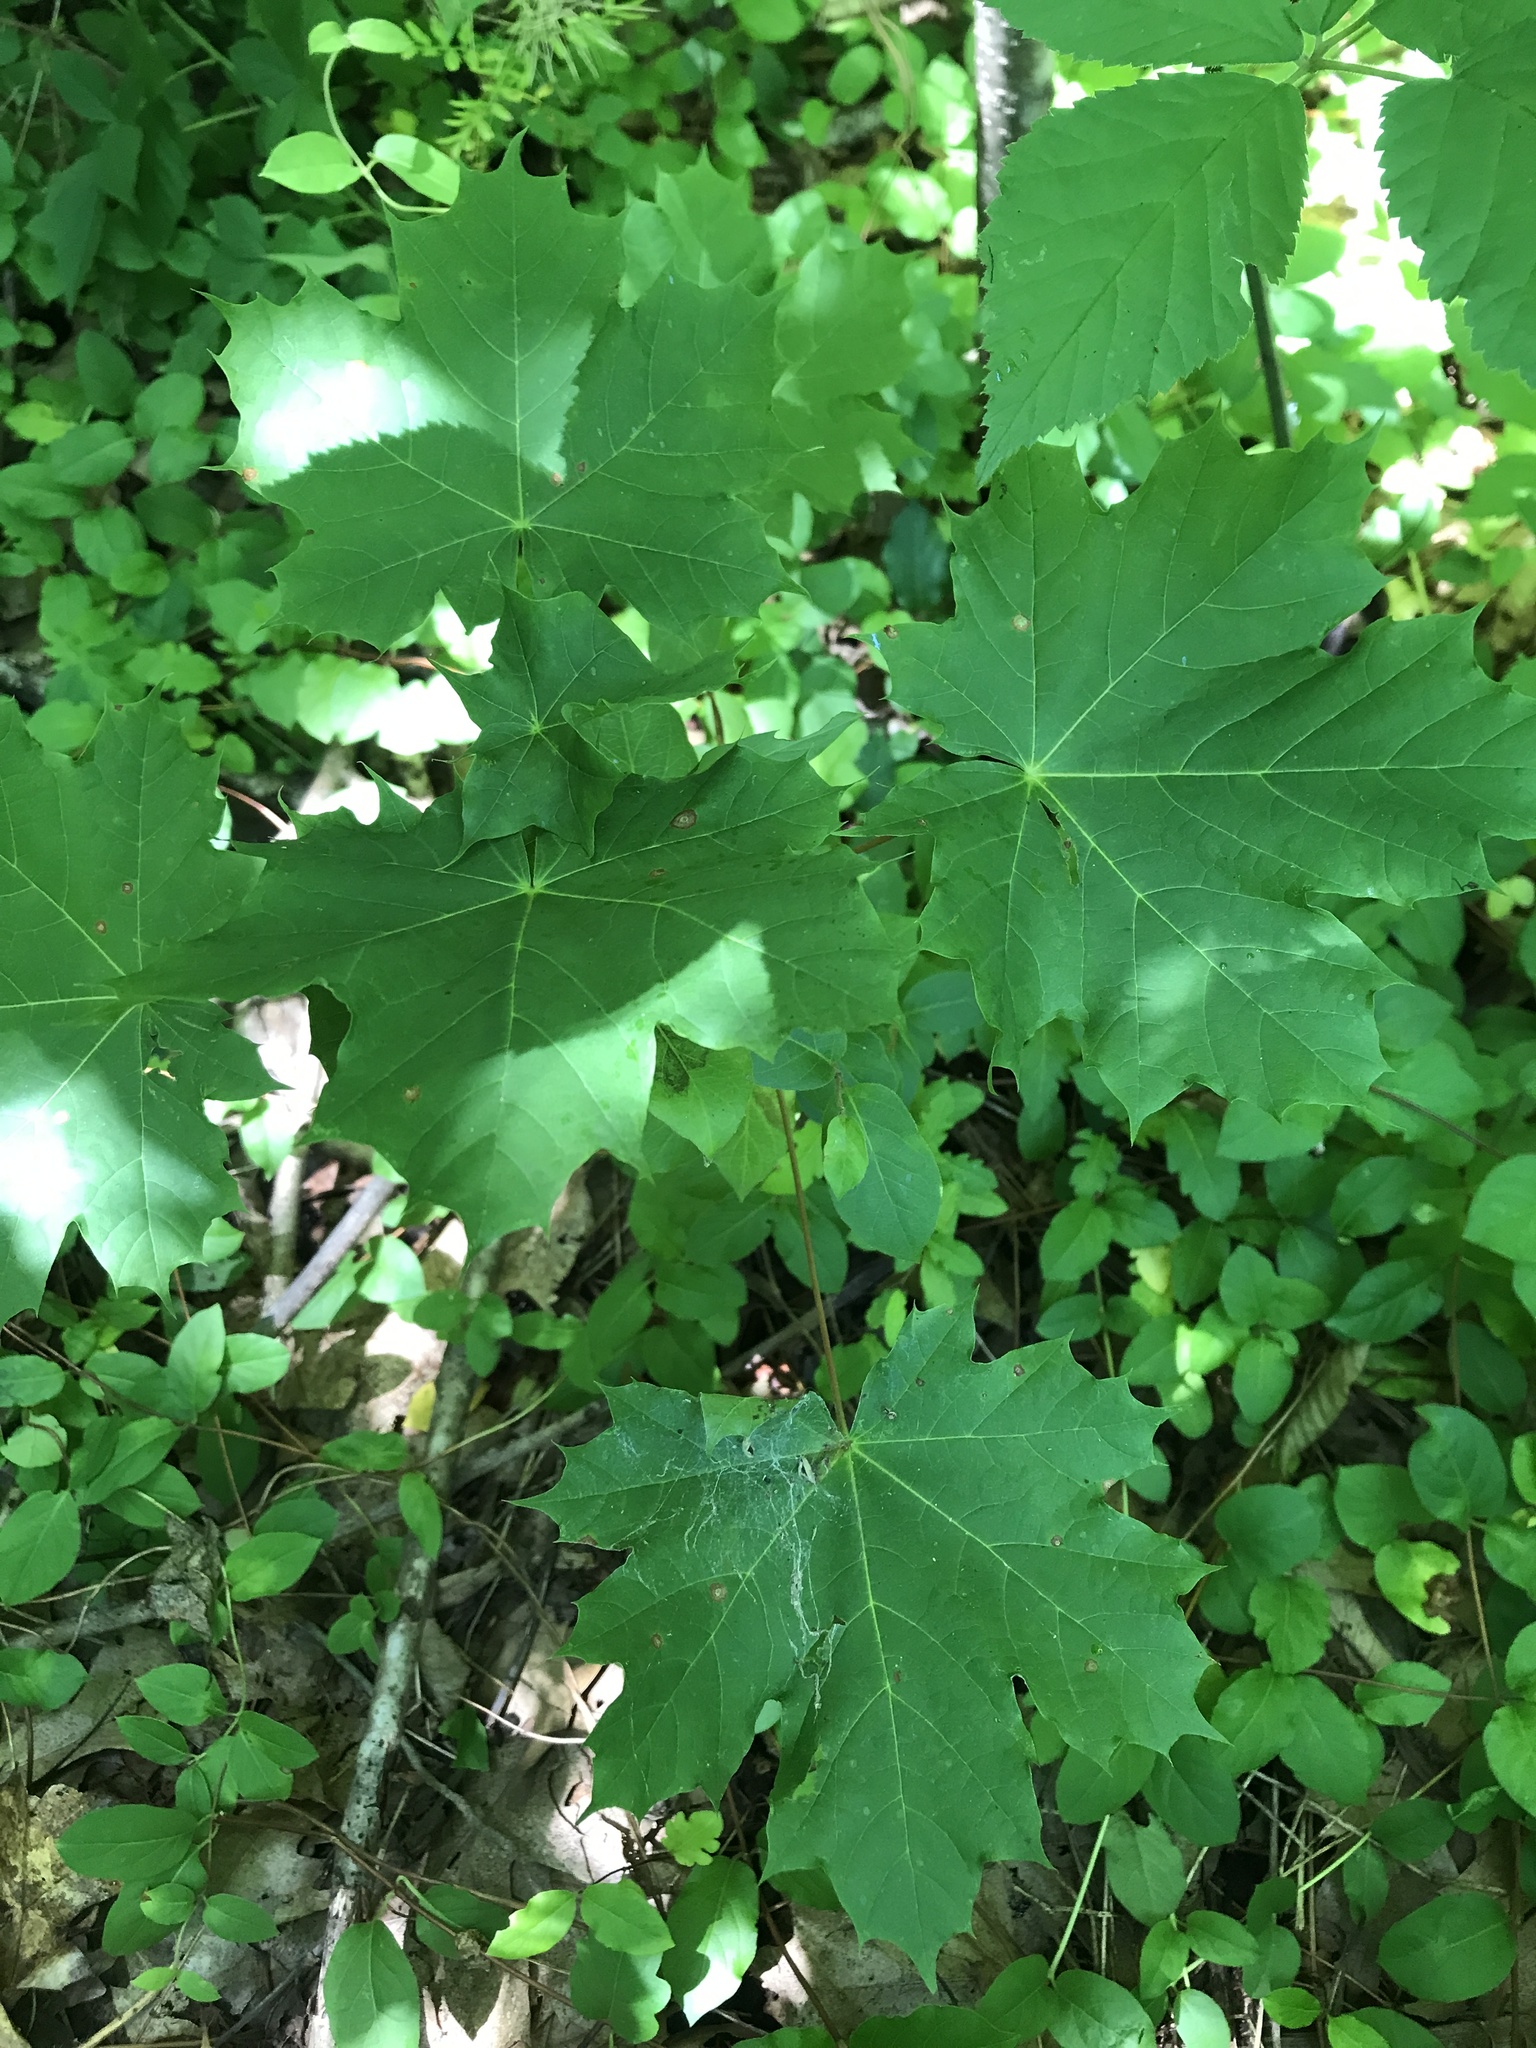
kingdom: Plantae
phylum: Tracheophyta
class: Magnoliopsida
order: Sapindales
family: Sapindaceae
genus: Acer
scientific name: Acer platanoides
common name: Norway maple
